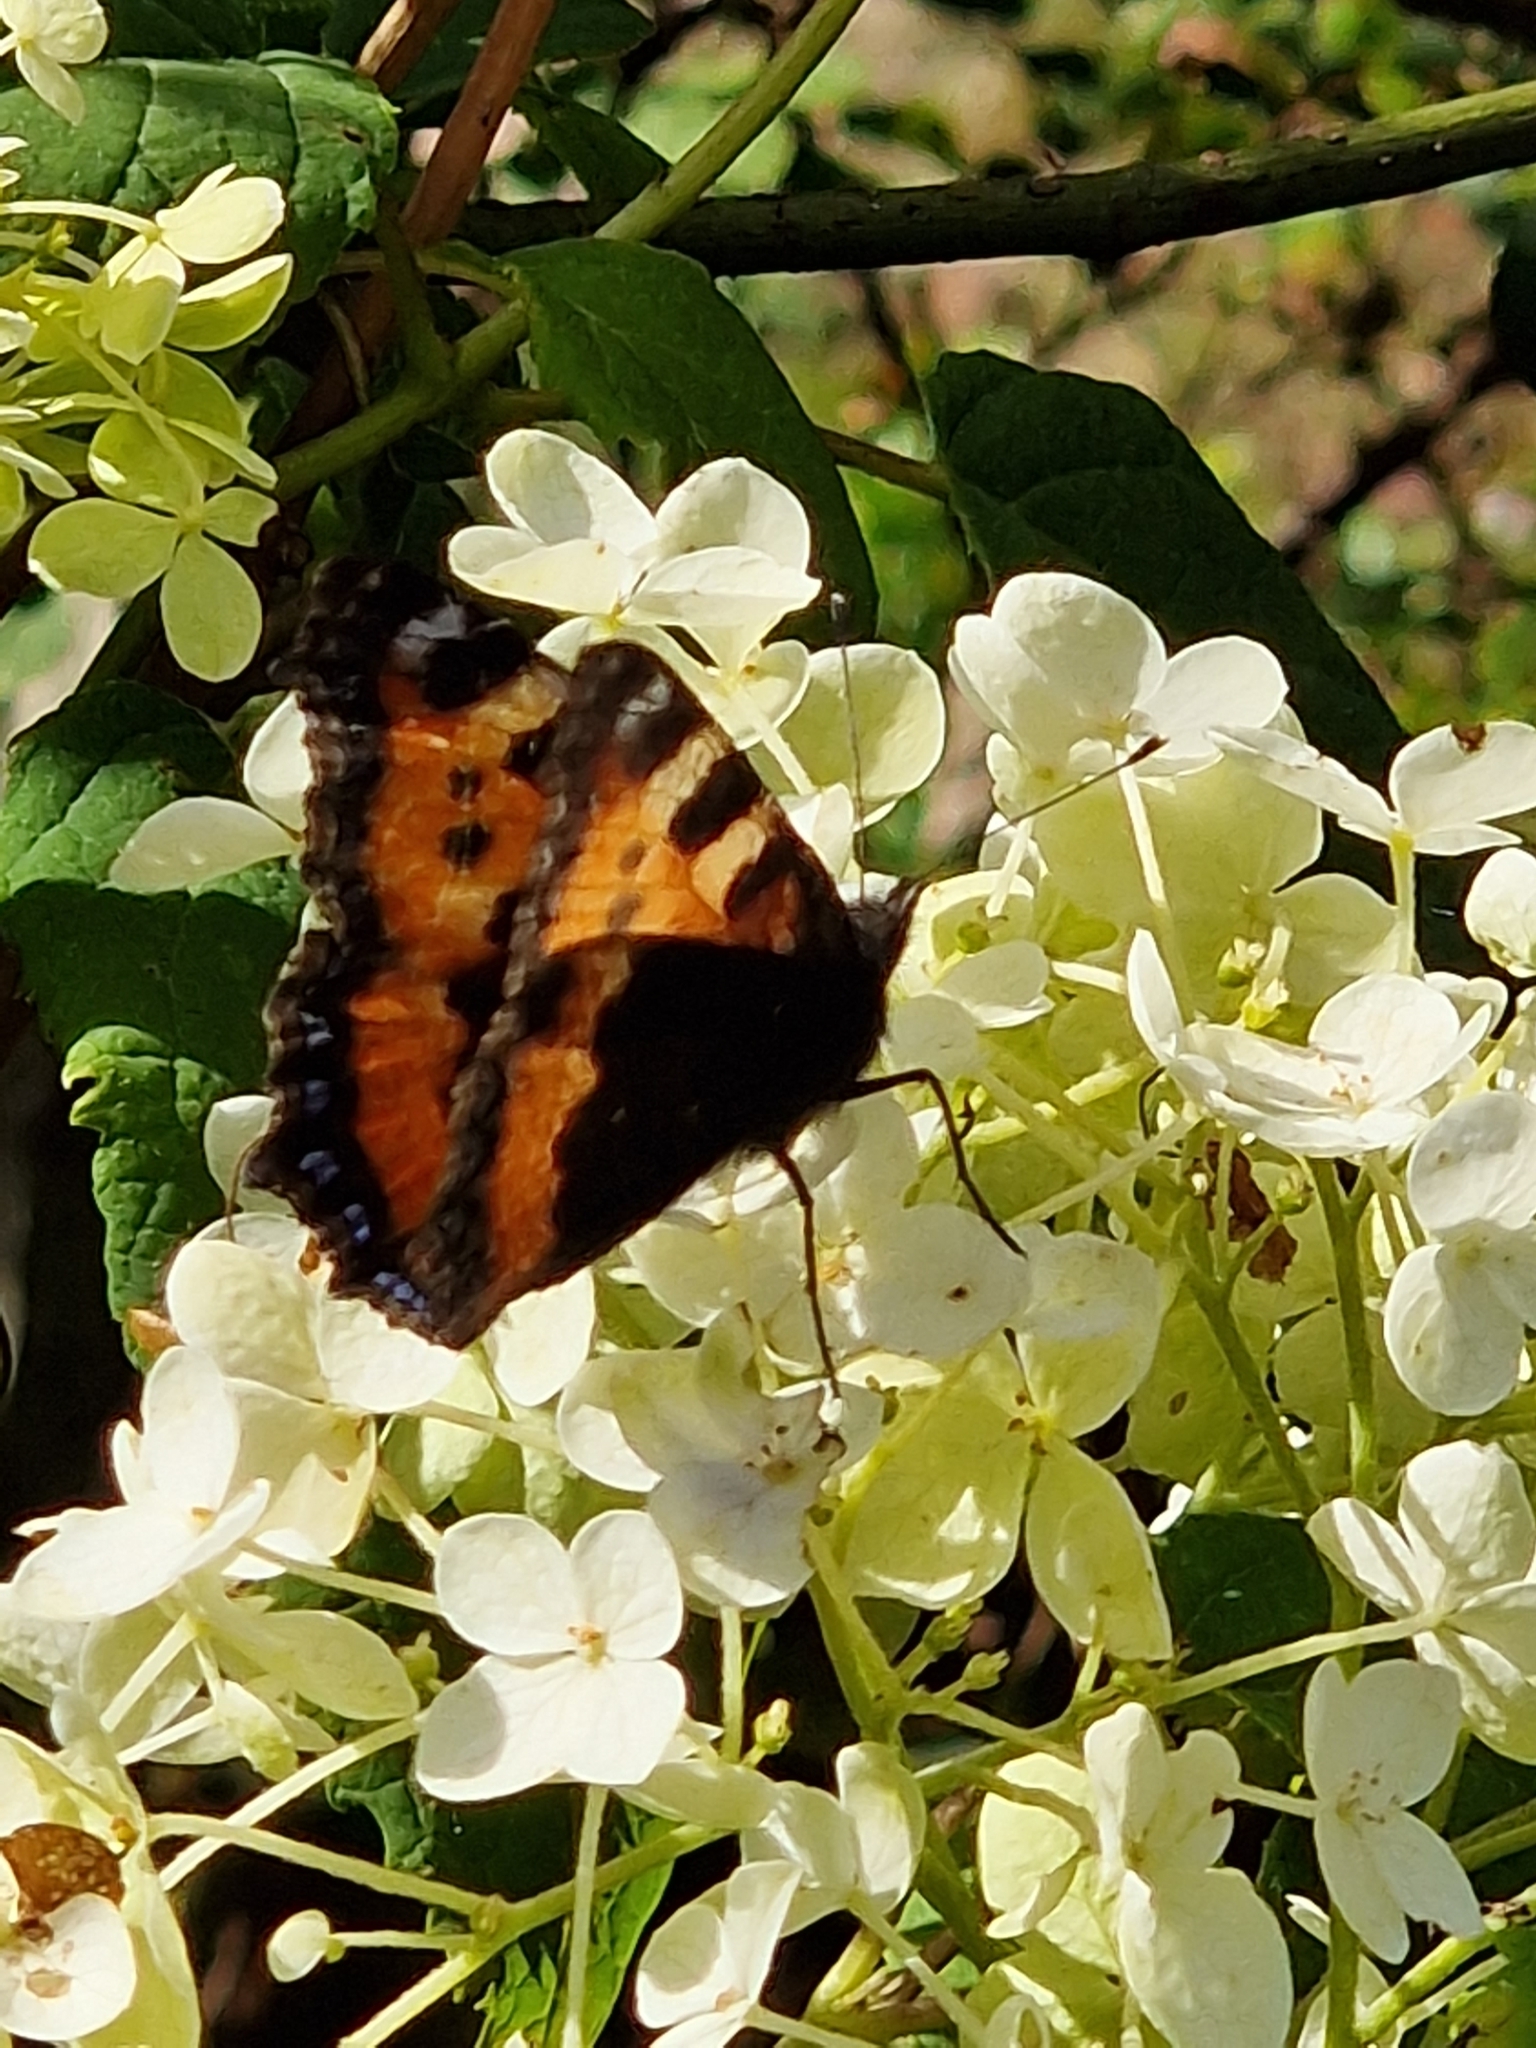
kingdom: Animalia
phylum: Arthropoda
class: Insecta
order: Lepidoptera
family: Nymphalidae
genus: Aglais
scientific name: Aglais urticae
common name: Small tortoiseshell
